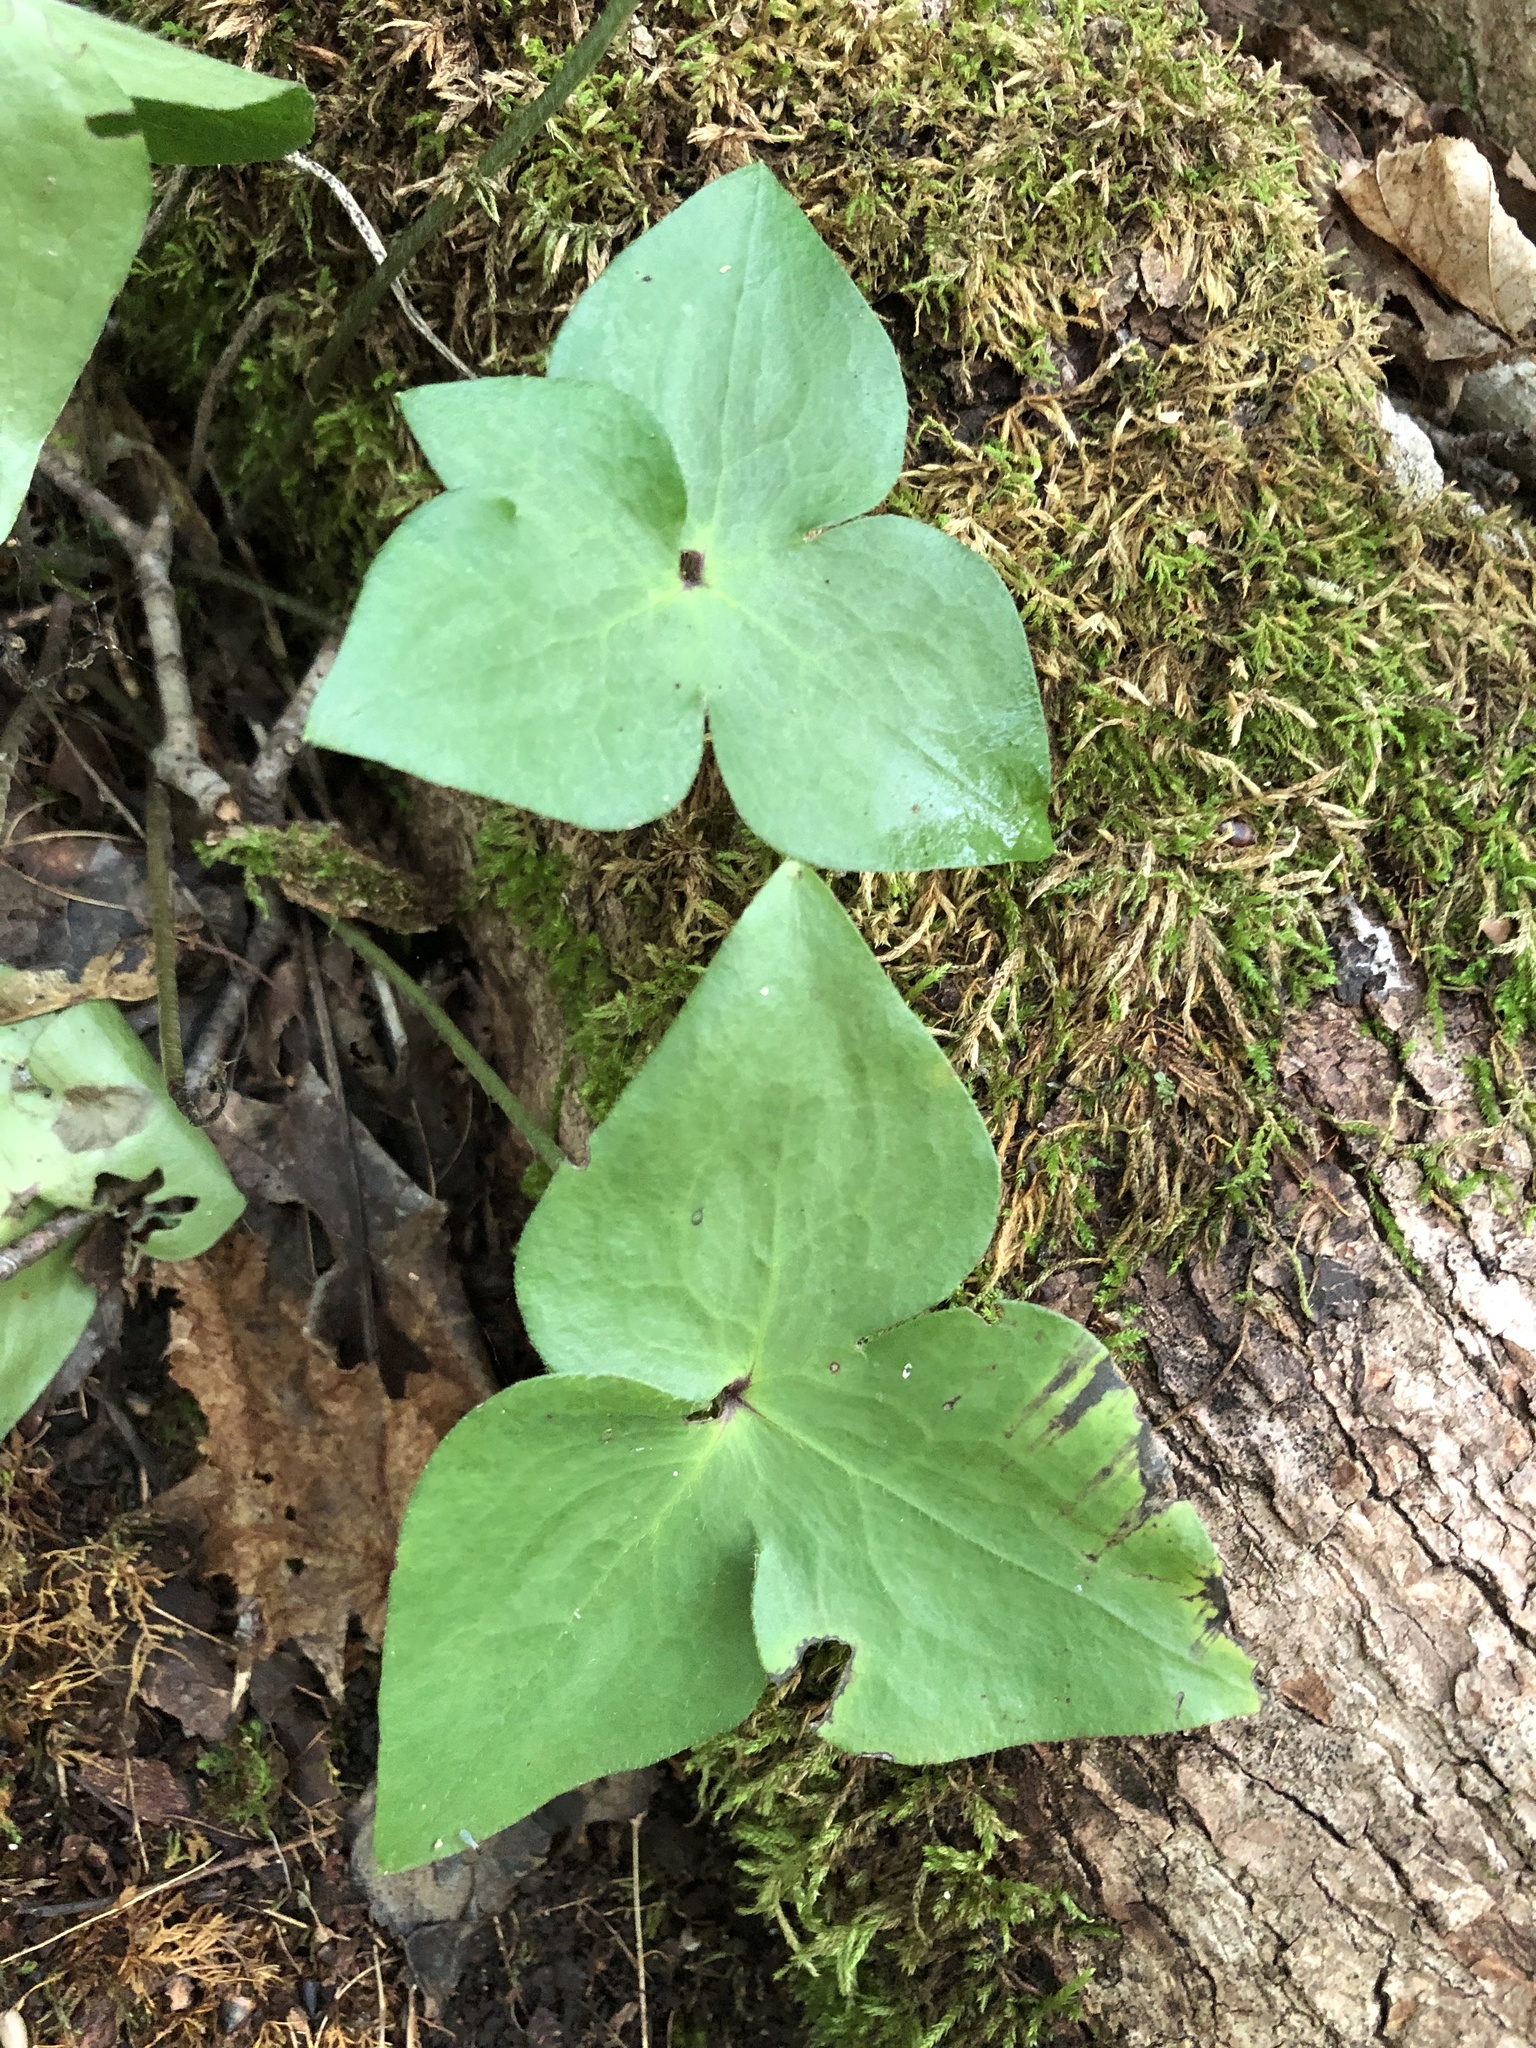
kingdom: Plantae
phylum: Tracheophyta
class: Magnoliopsida
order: Ranunculales
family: Ranunculaceae
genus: Hepatica
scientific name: Hepatica acutiloba
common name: Sharp-lobed hepatica
